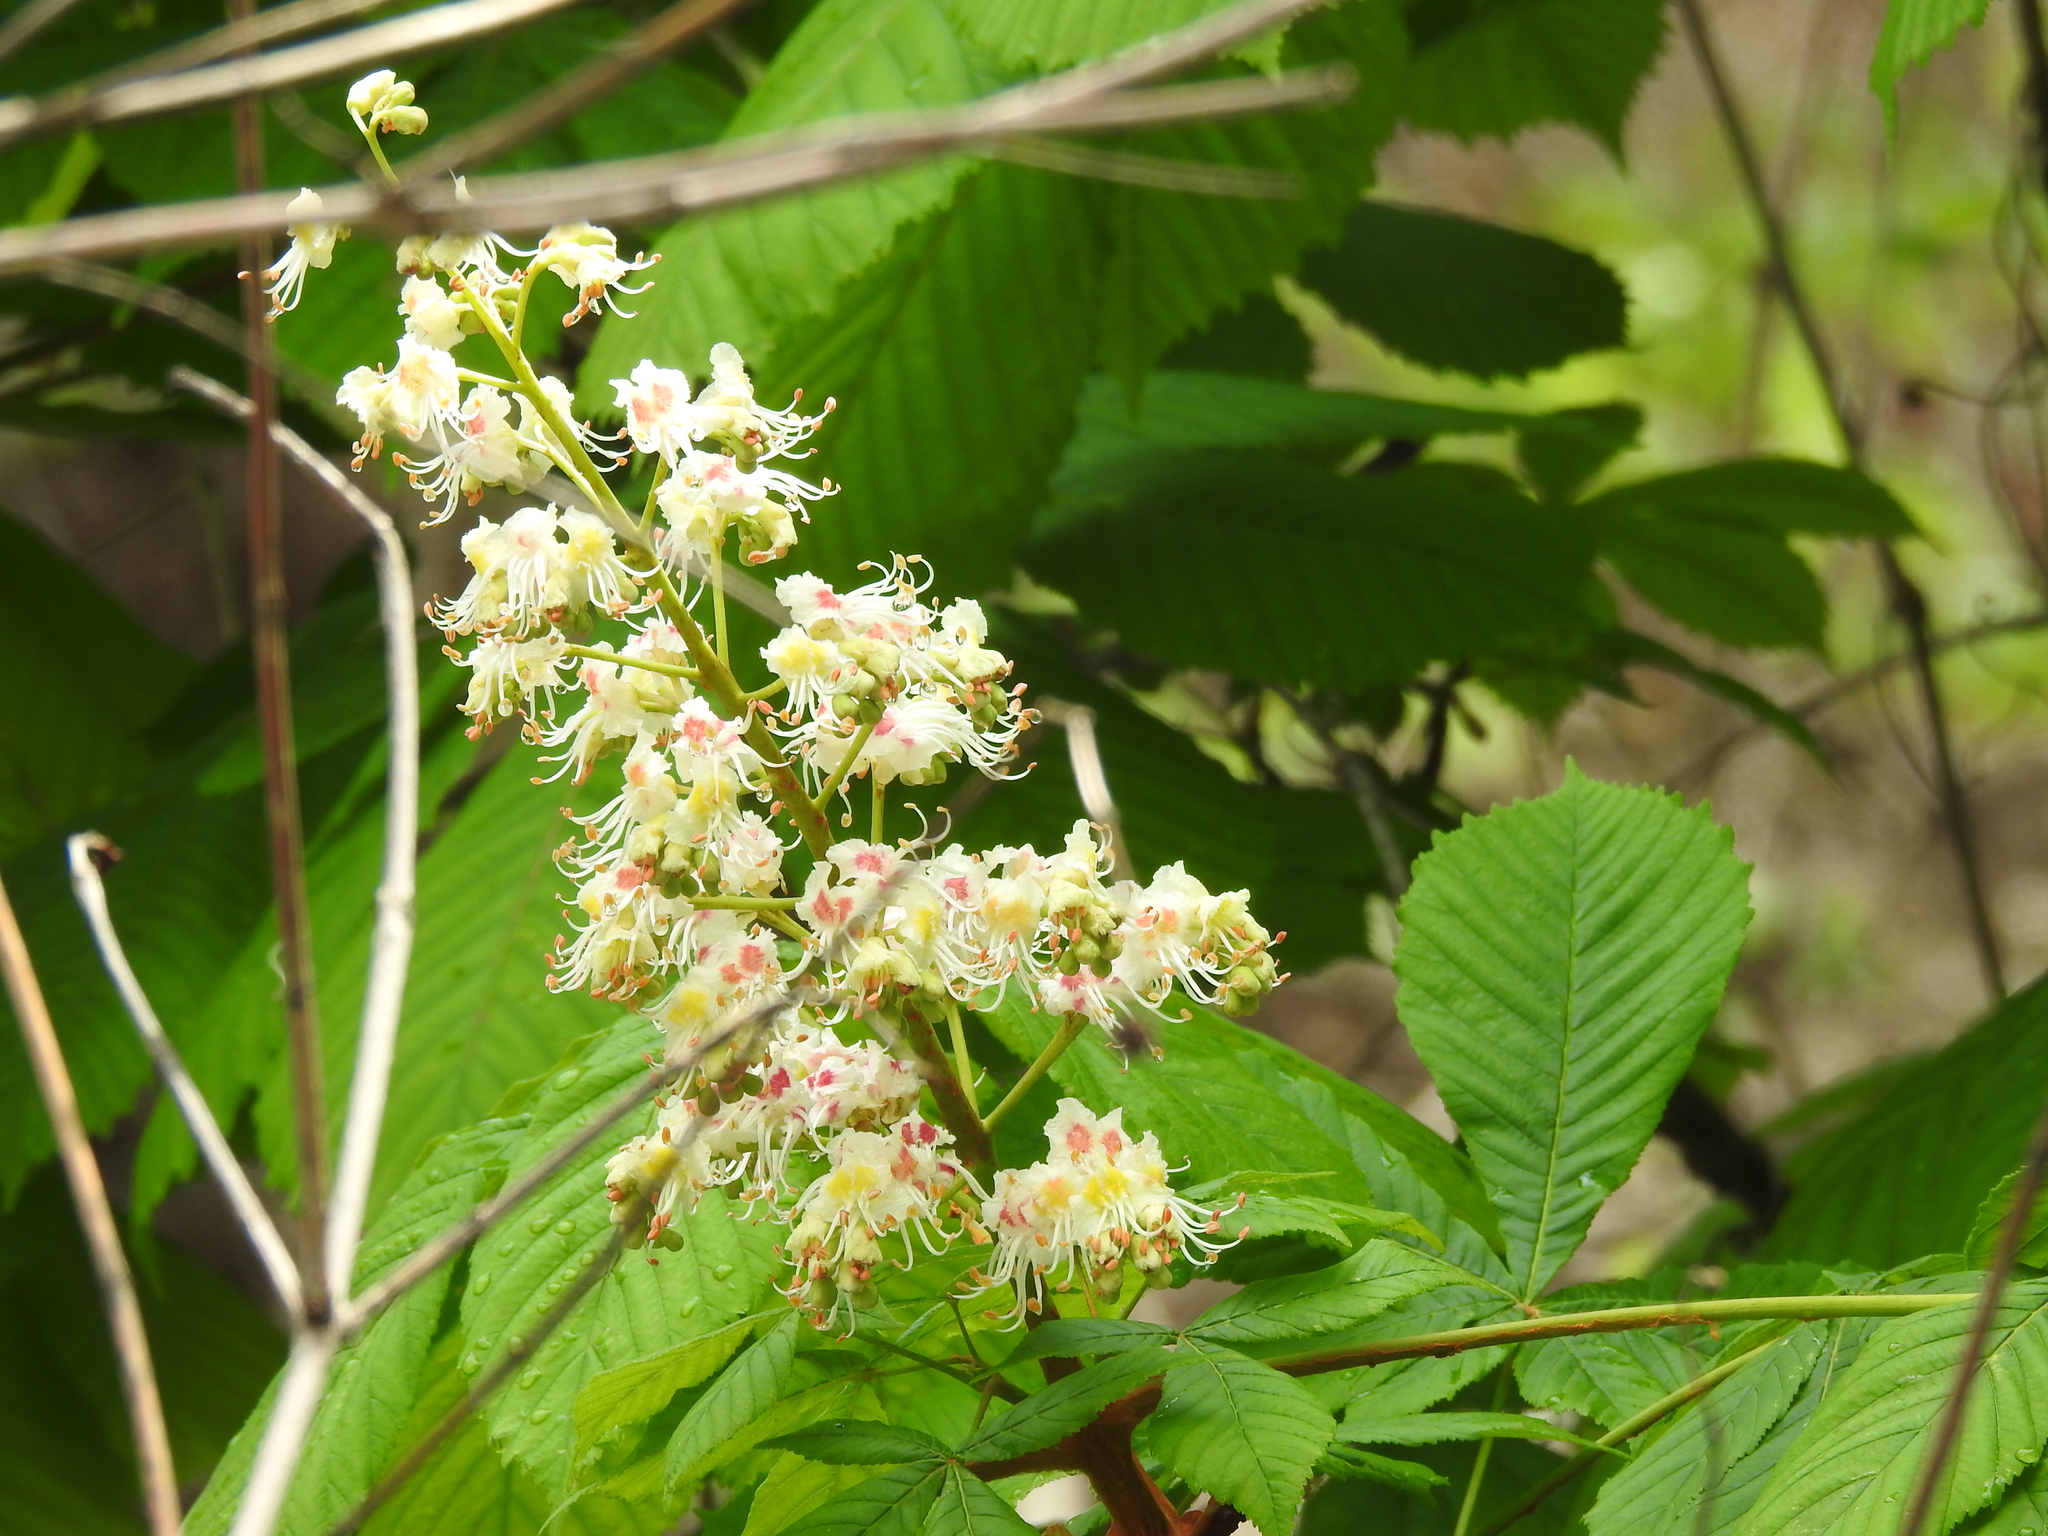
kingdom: Plantae
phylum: Tracheophyta
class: Magnoliopsida
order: Sapindales
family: Sapindaceae
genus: Aesculus
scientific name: Aesculus hippocastanum
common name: Horse-chestnut
